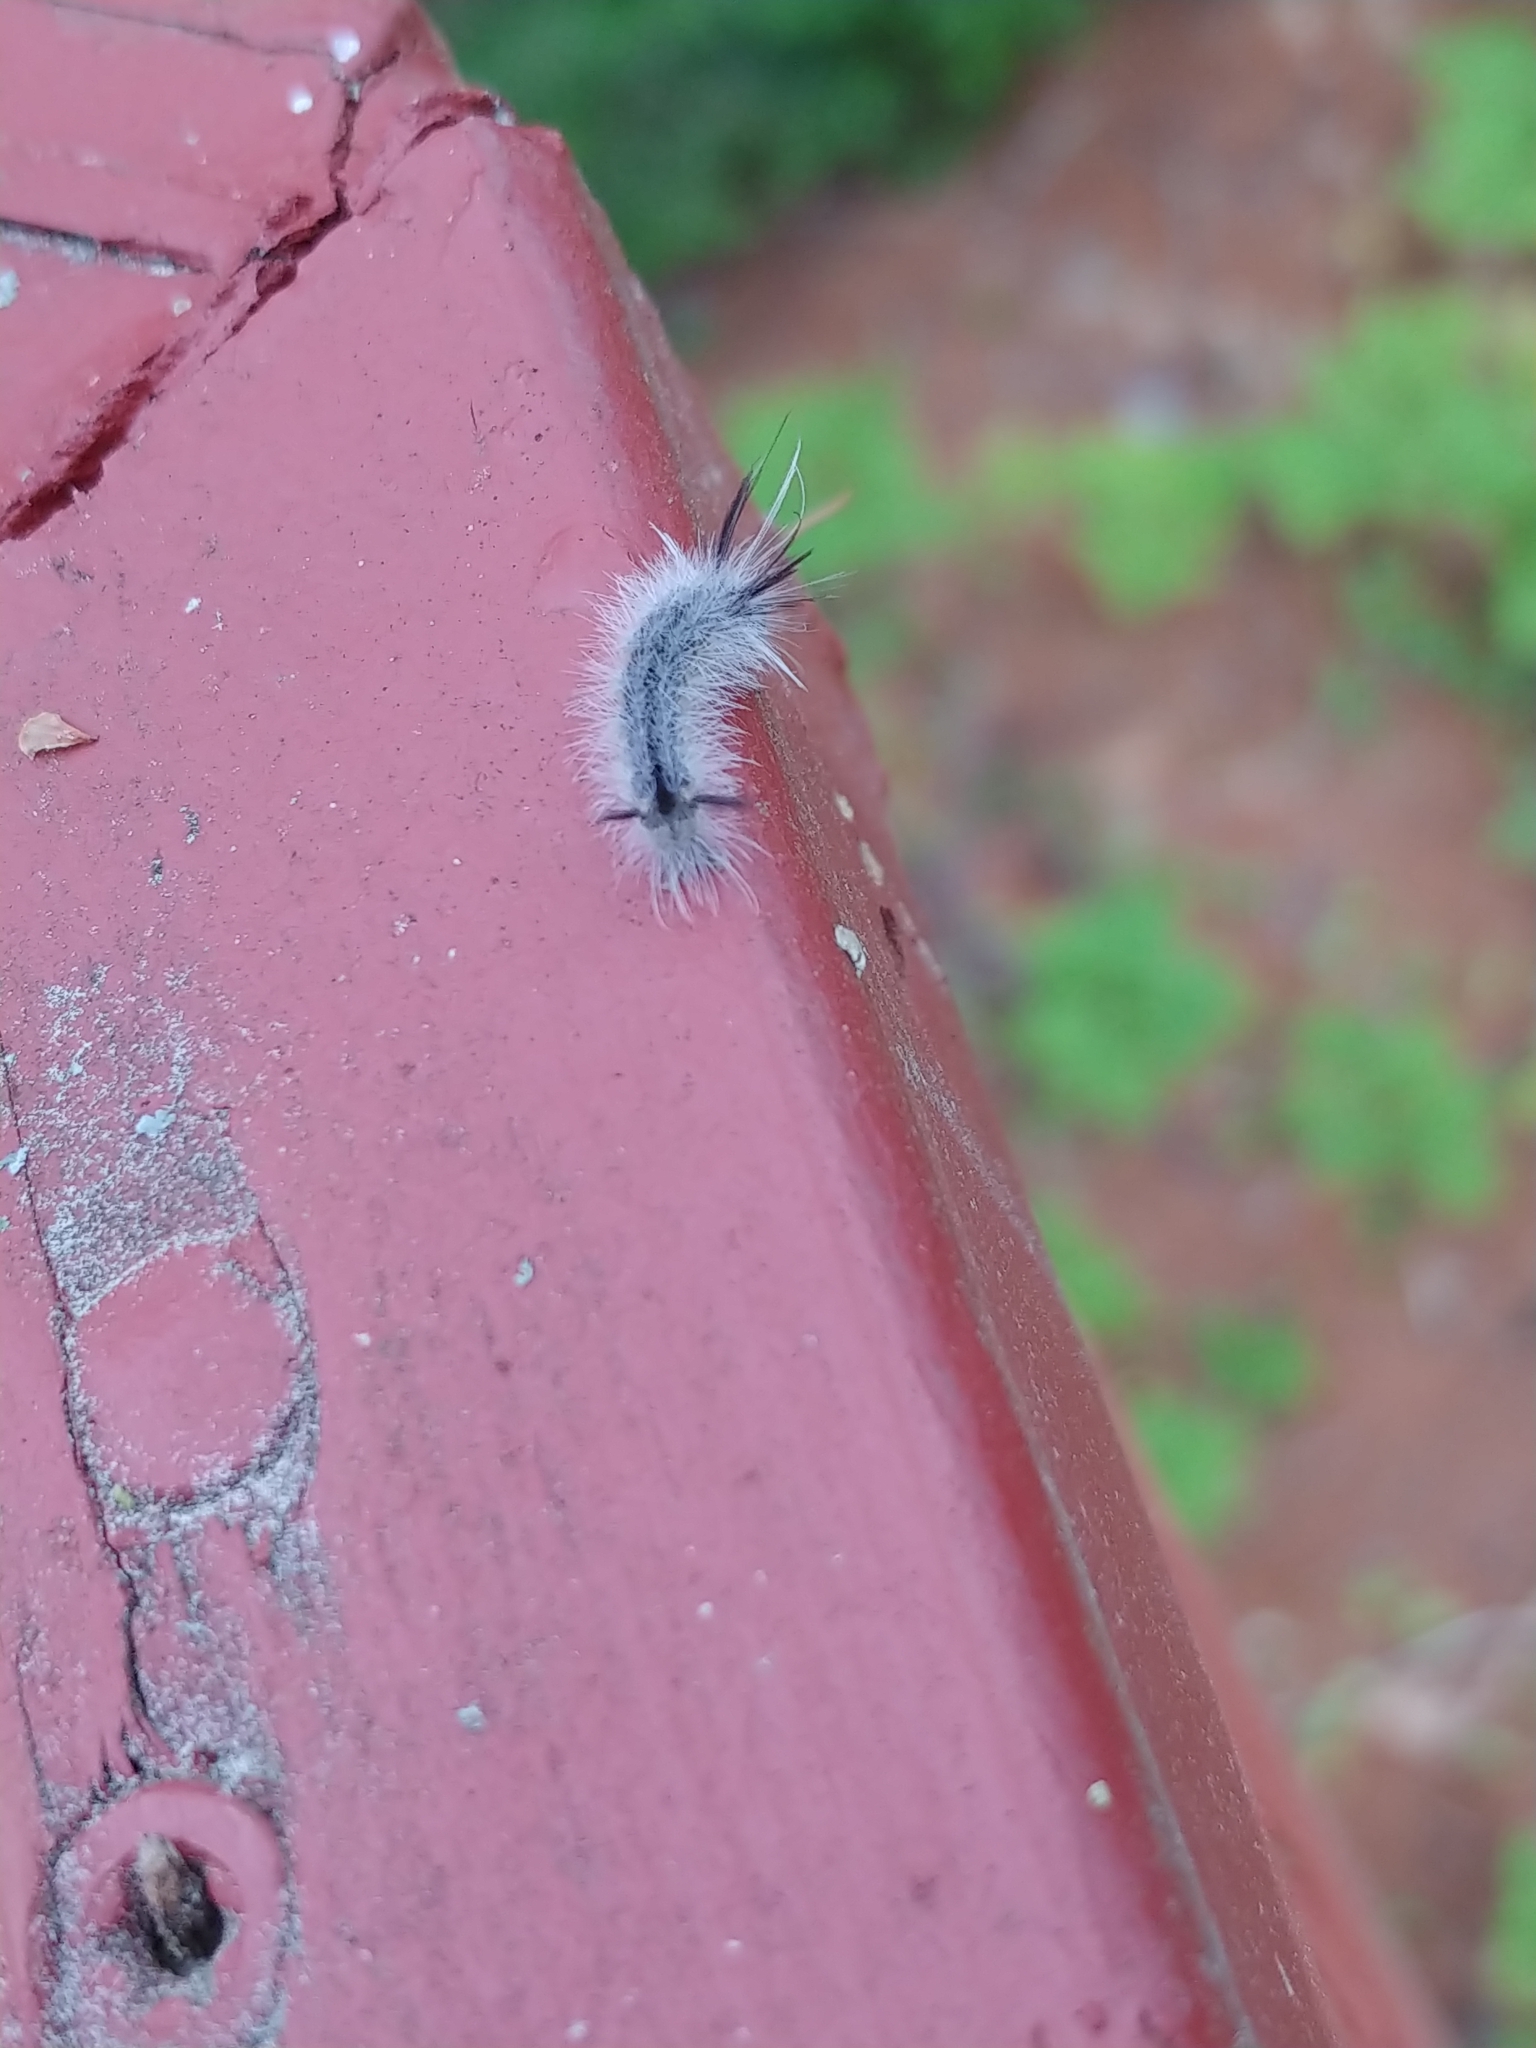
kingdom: Animalia
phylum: Arthropoda
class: Insecta
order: Lepidoptera
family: Erebidae
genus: Halysidota
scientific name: Halysidota tessellaris
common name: Banded tussock moth
